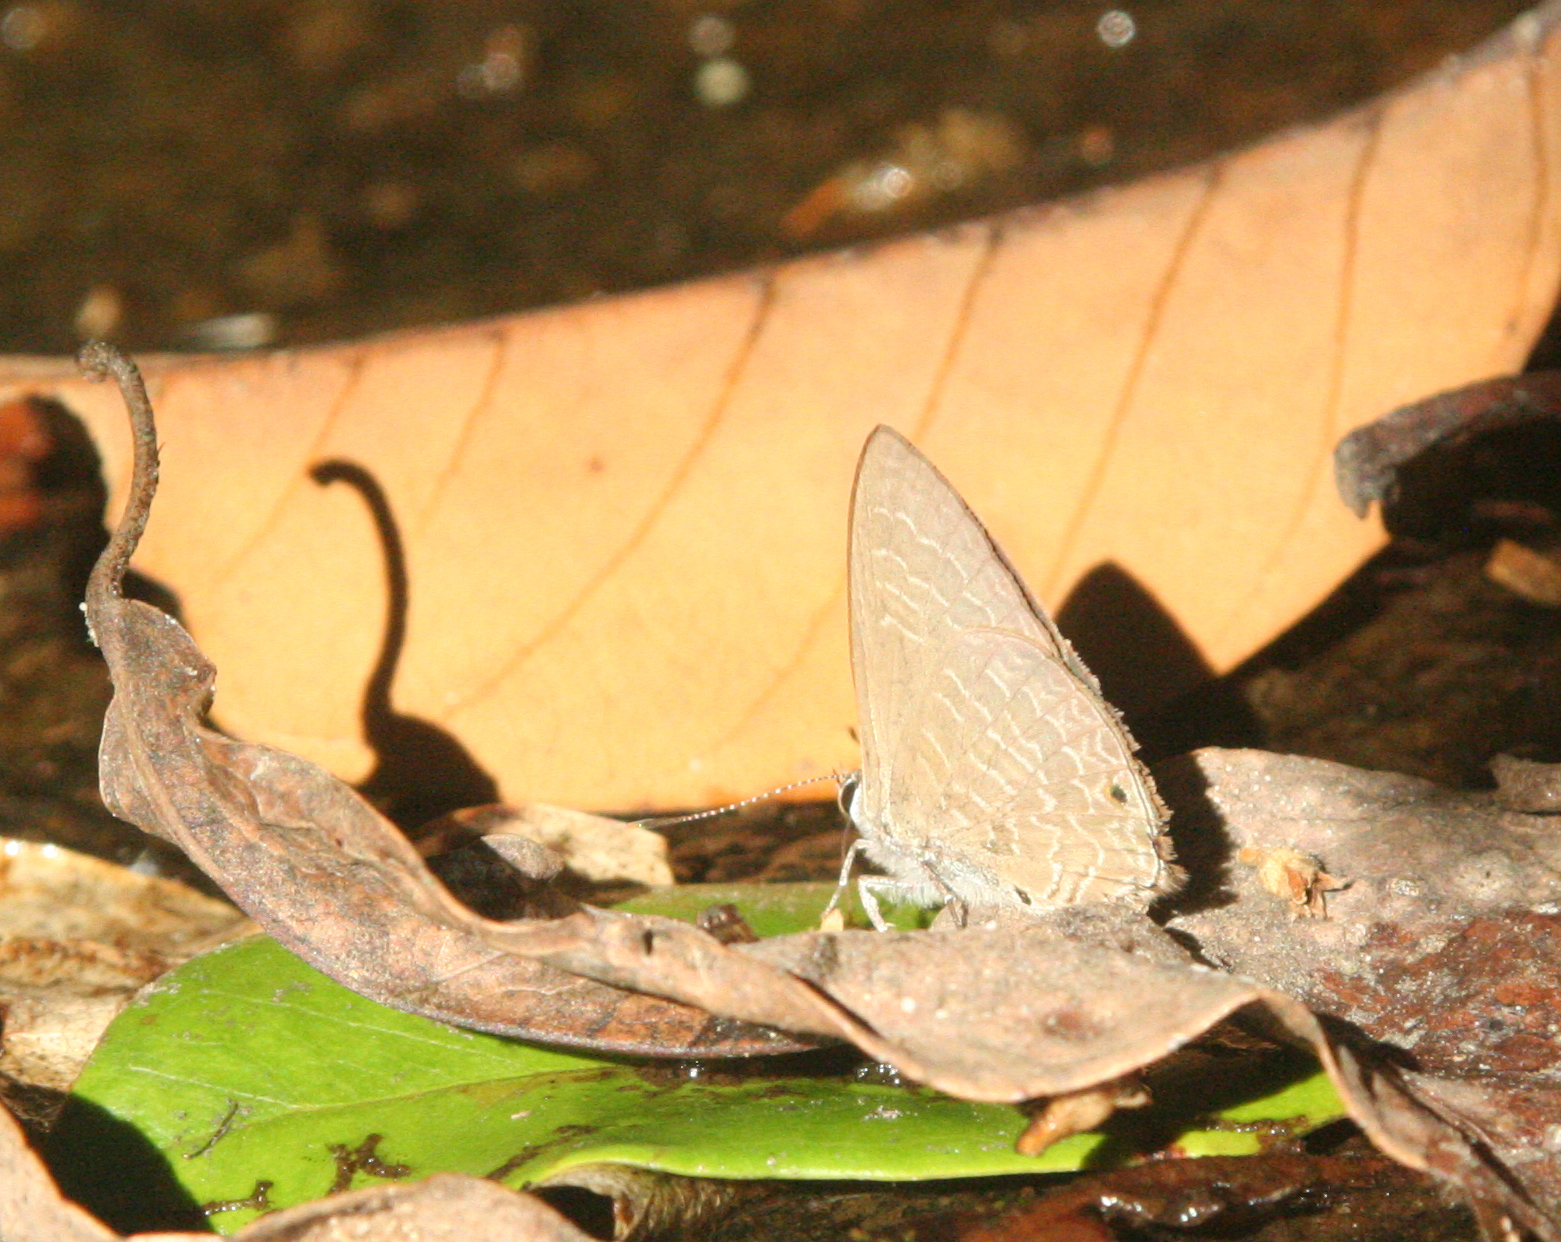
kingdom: Animalia
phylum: Arthropoda
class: Insecta
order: Lepidoptera
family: Lycaenidae
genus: Anthene
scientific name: Anthene emolus
